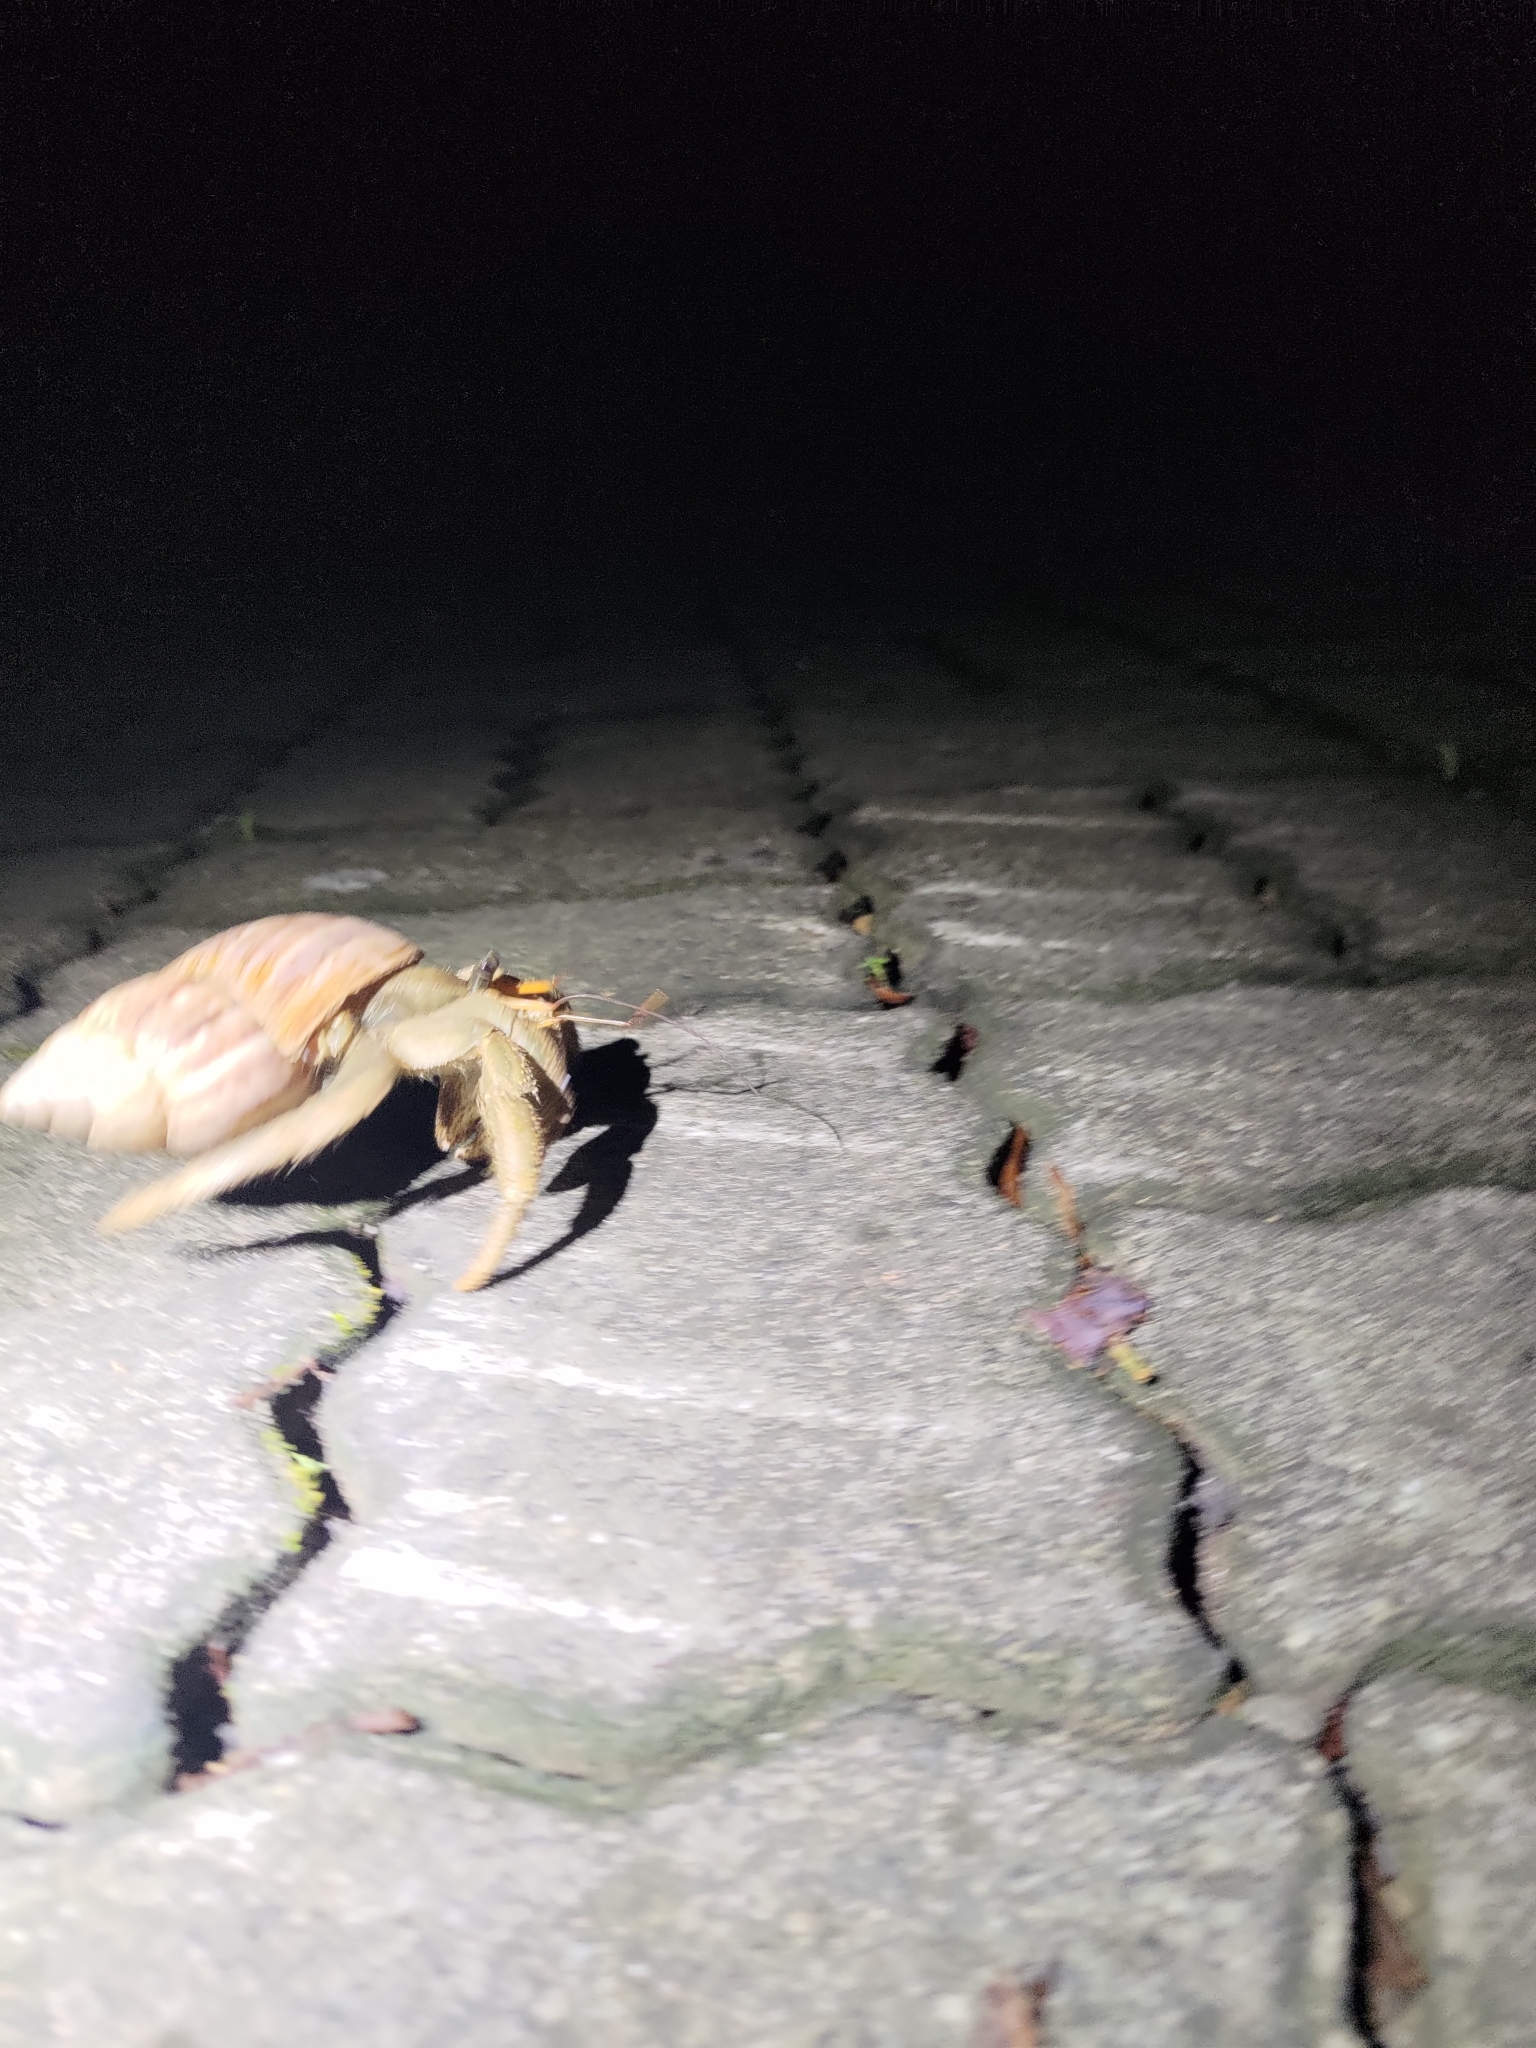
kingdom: Animalia
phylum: Arthropoda
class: Malacostraca
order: Decapoda
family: Coenobitidae
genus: Coenobita
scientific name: Coenobita cavipes
